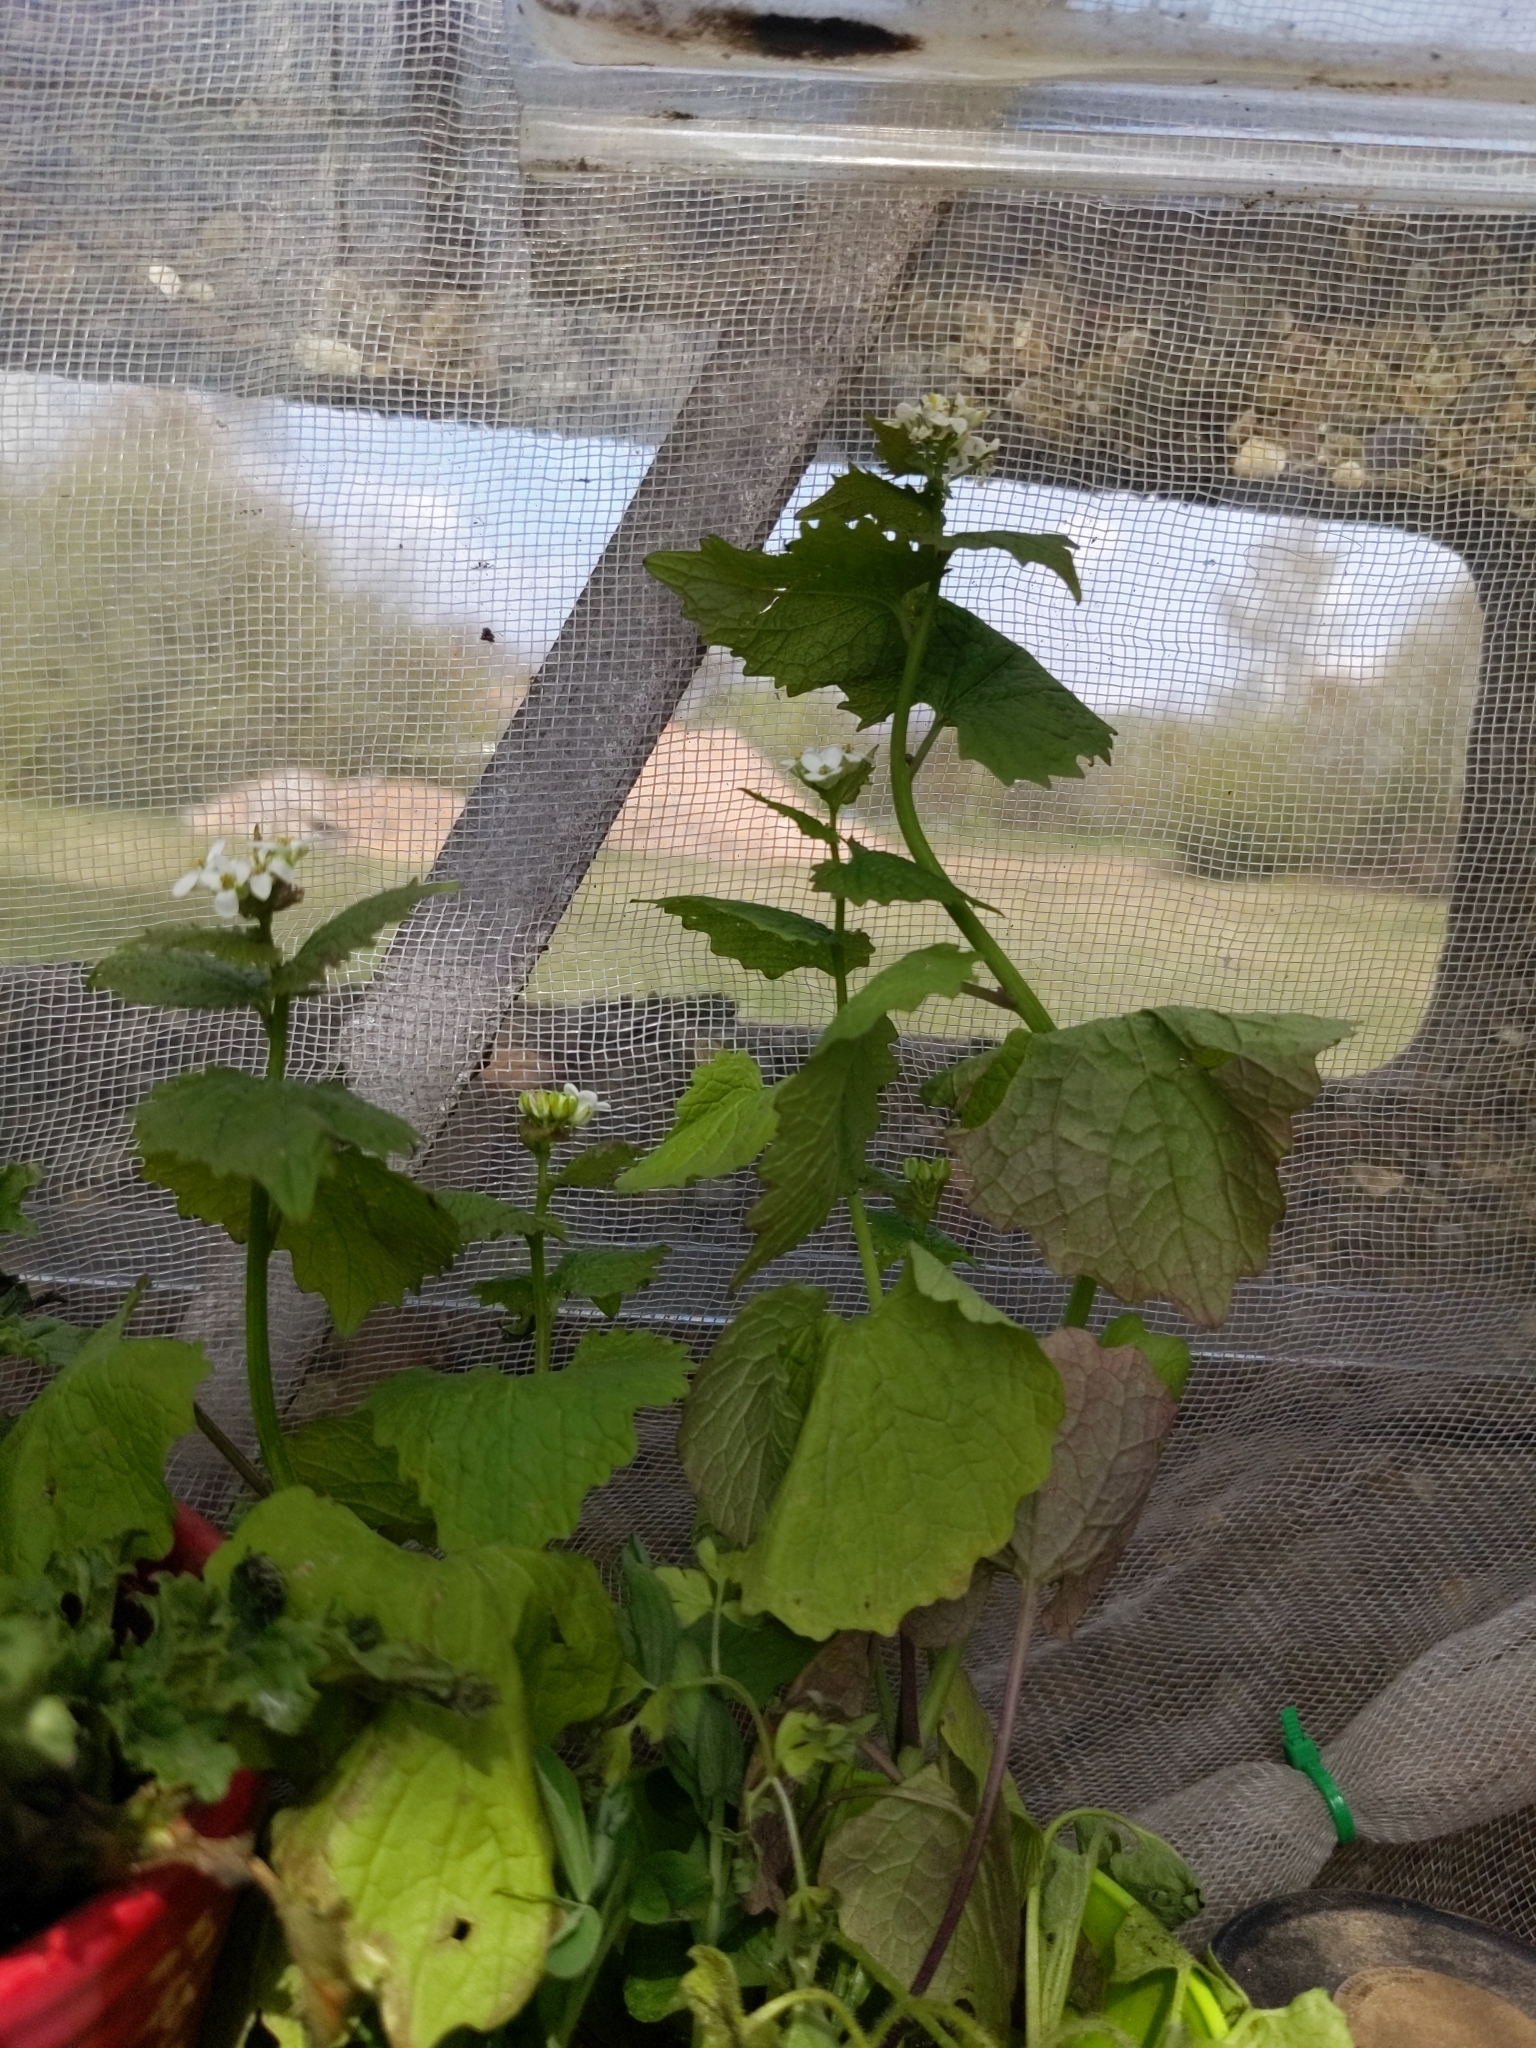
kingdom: Plantae
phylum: Tracheophyta
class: Magnoliopsida
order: Brassicales
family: Brassicaceae
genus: Alliaria
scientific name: Alliaria petiolata
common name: Garlic mustard
